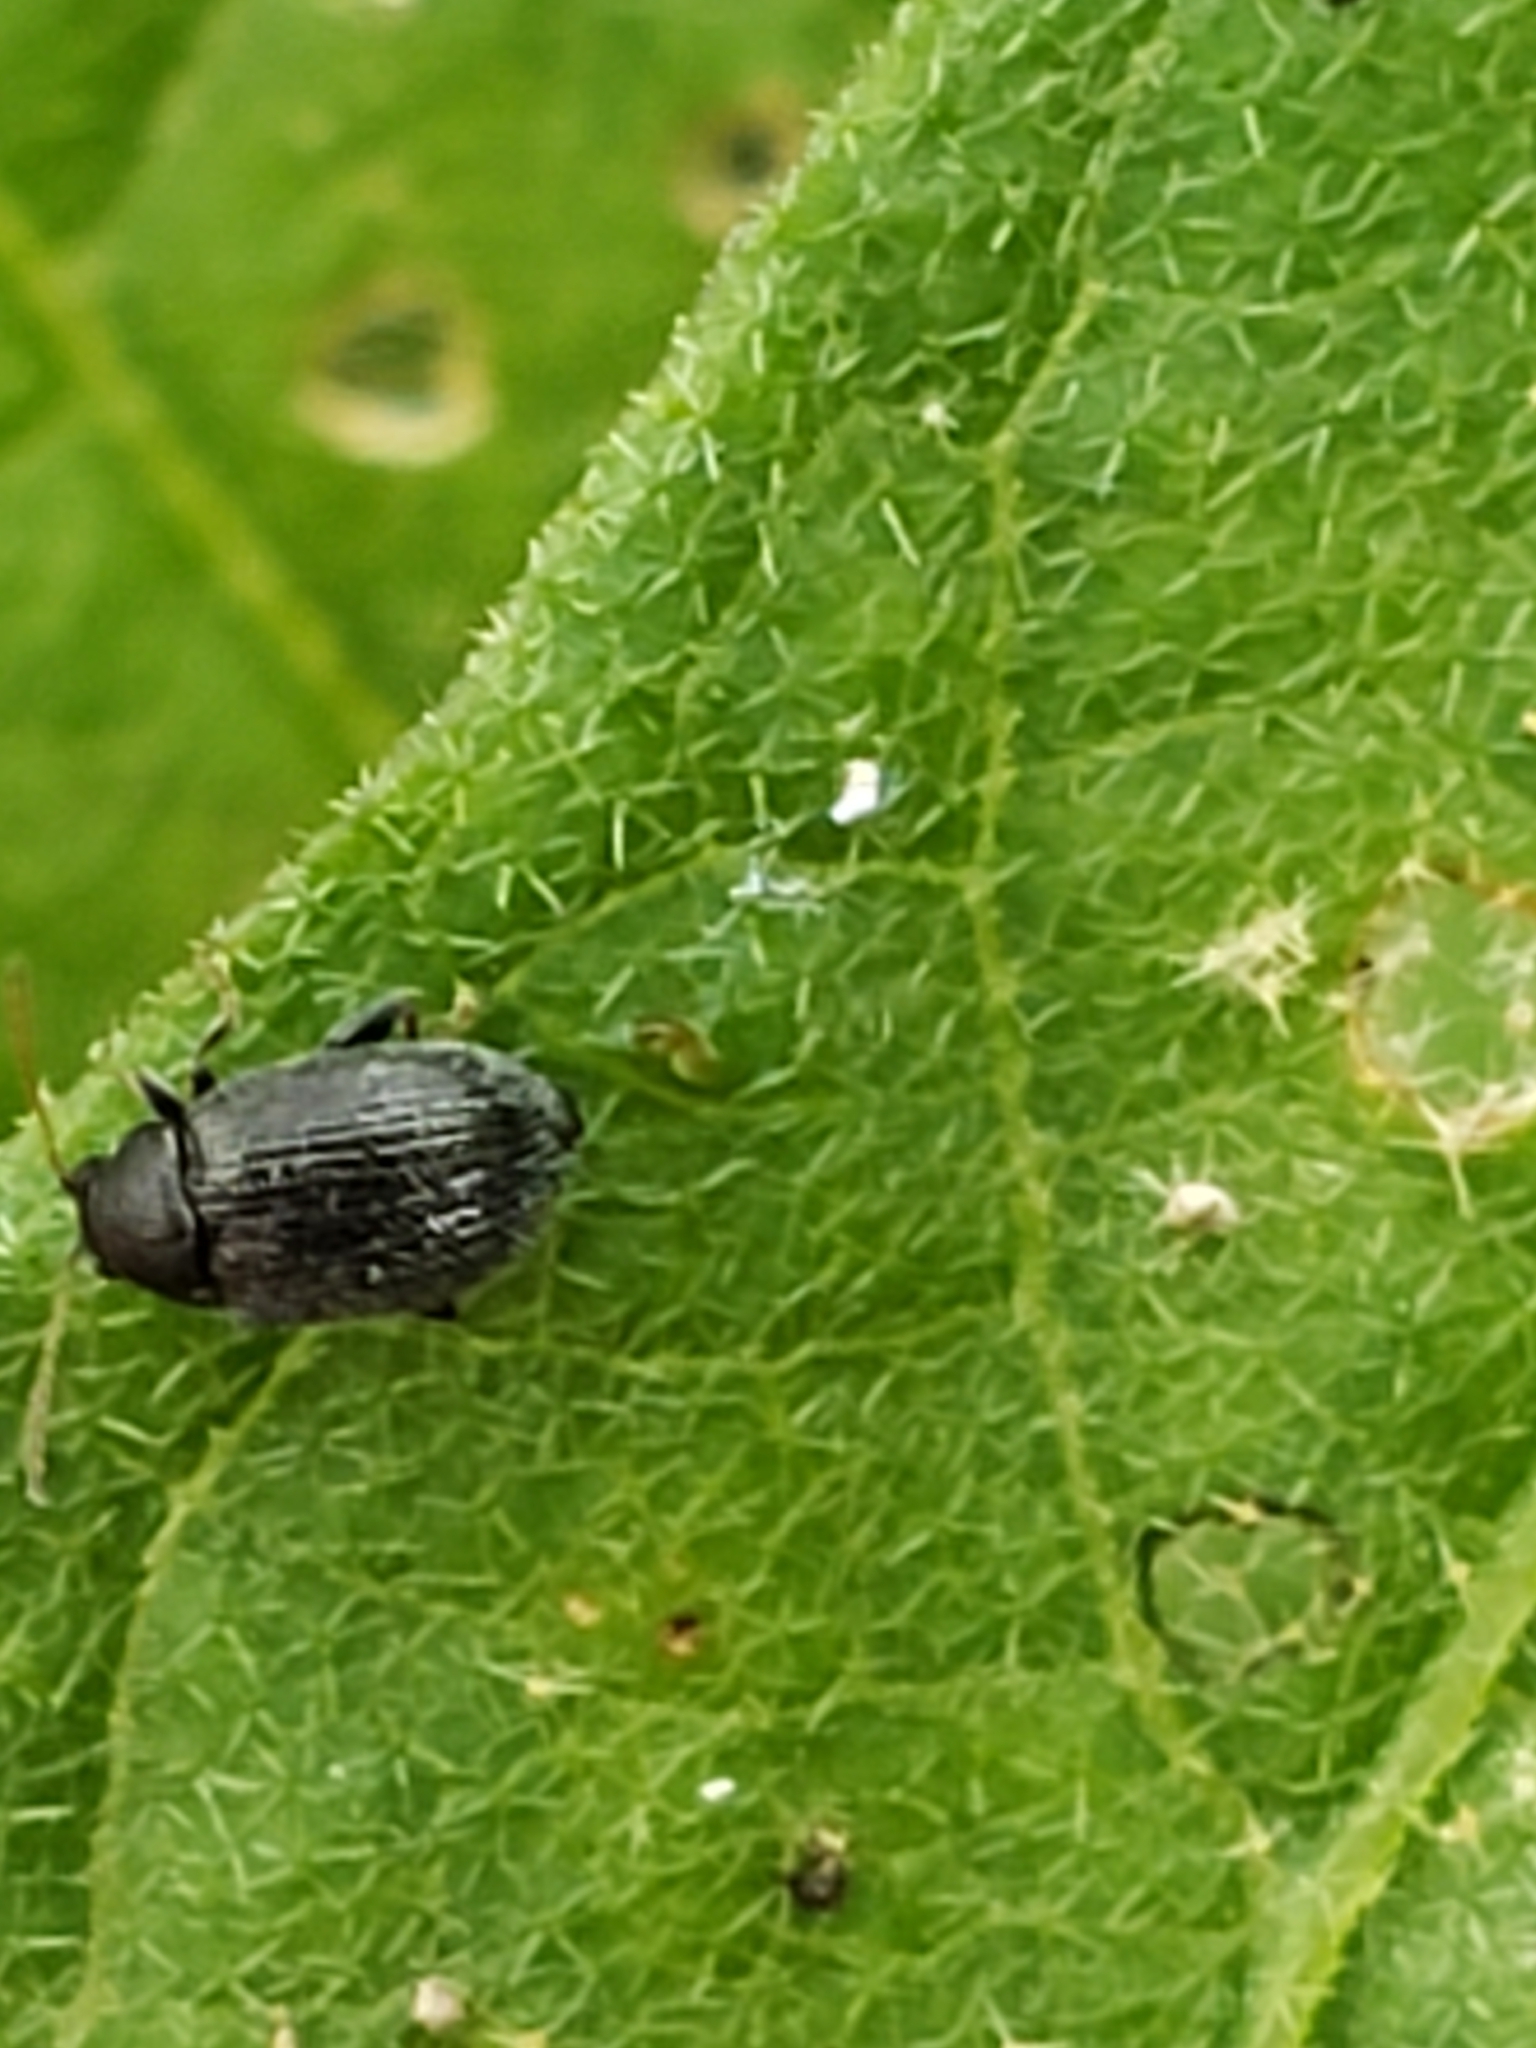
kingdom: Animalia
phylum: Arthropoda
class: Insecta
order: Coleoptera
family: Chrysomelidae
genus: Epitrix
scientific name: Epitrix fuscula
